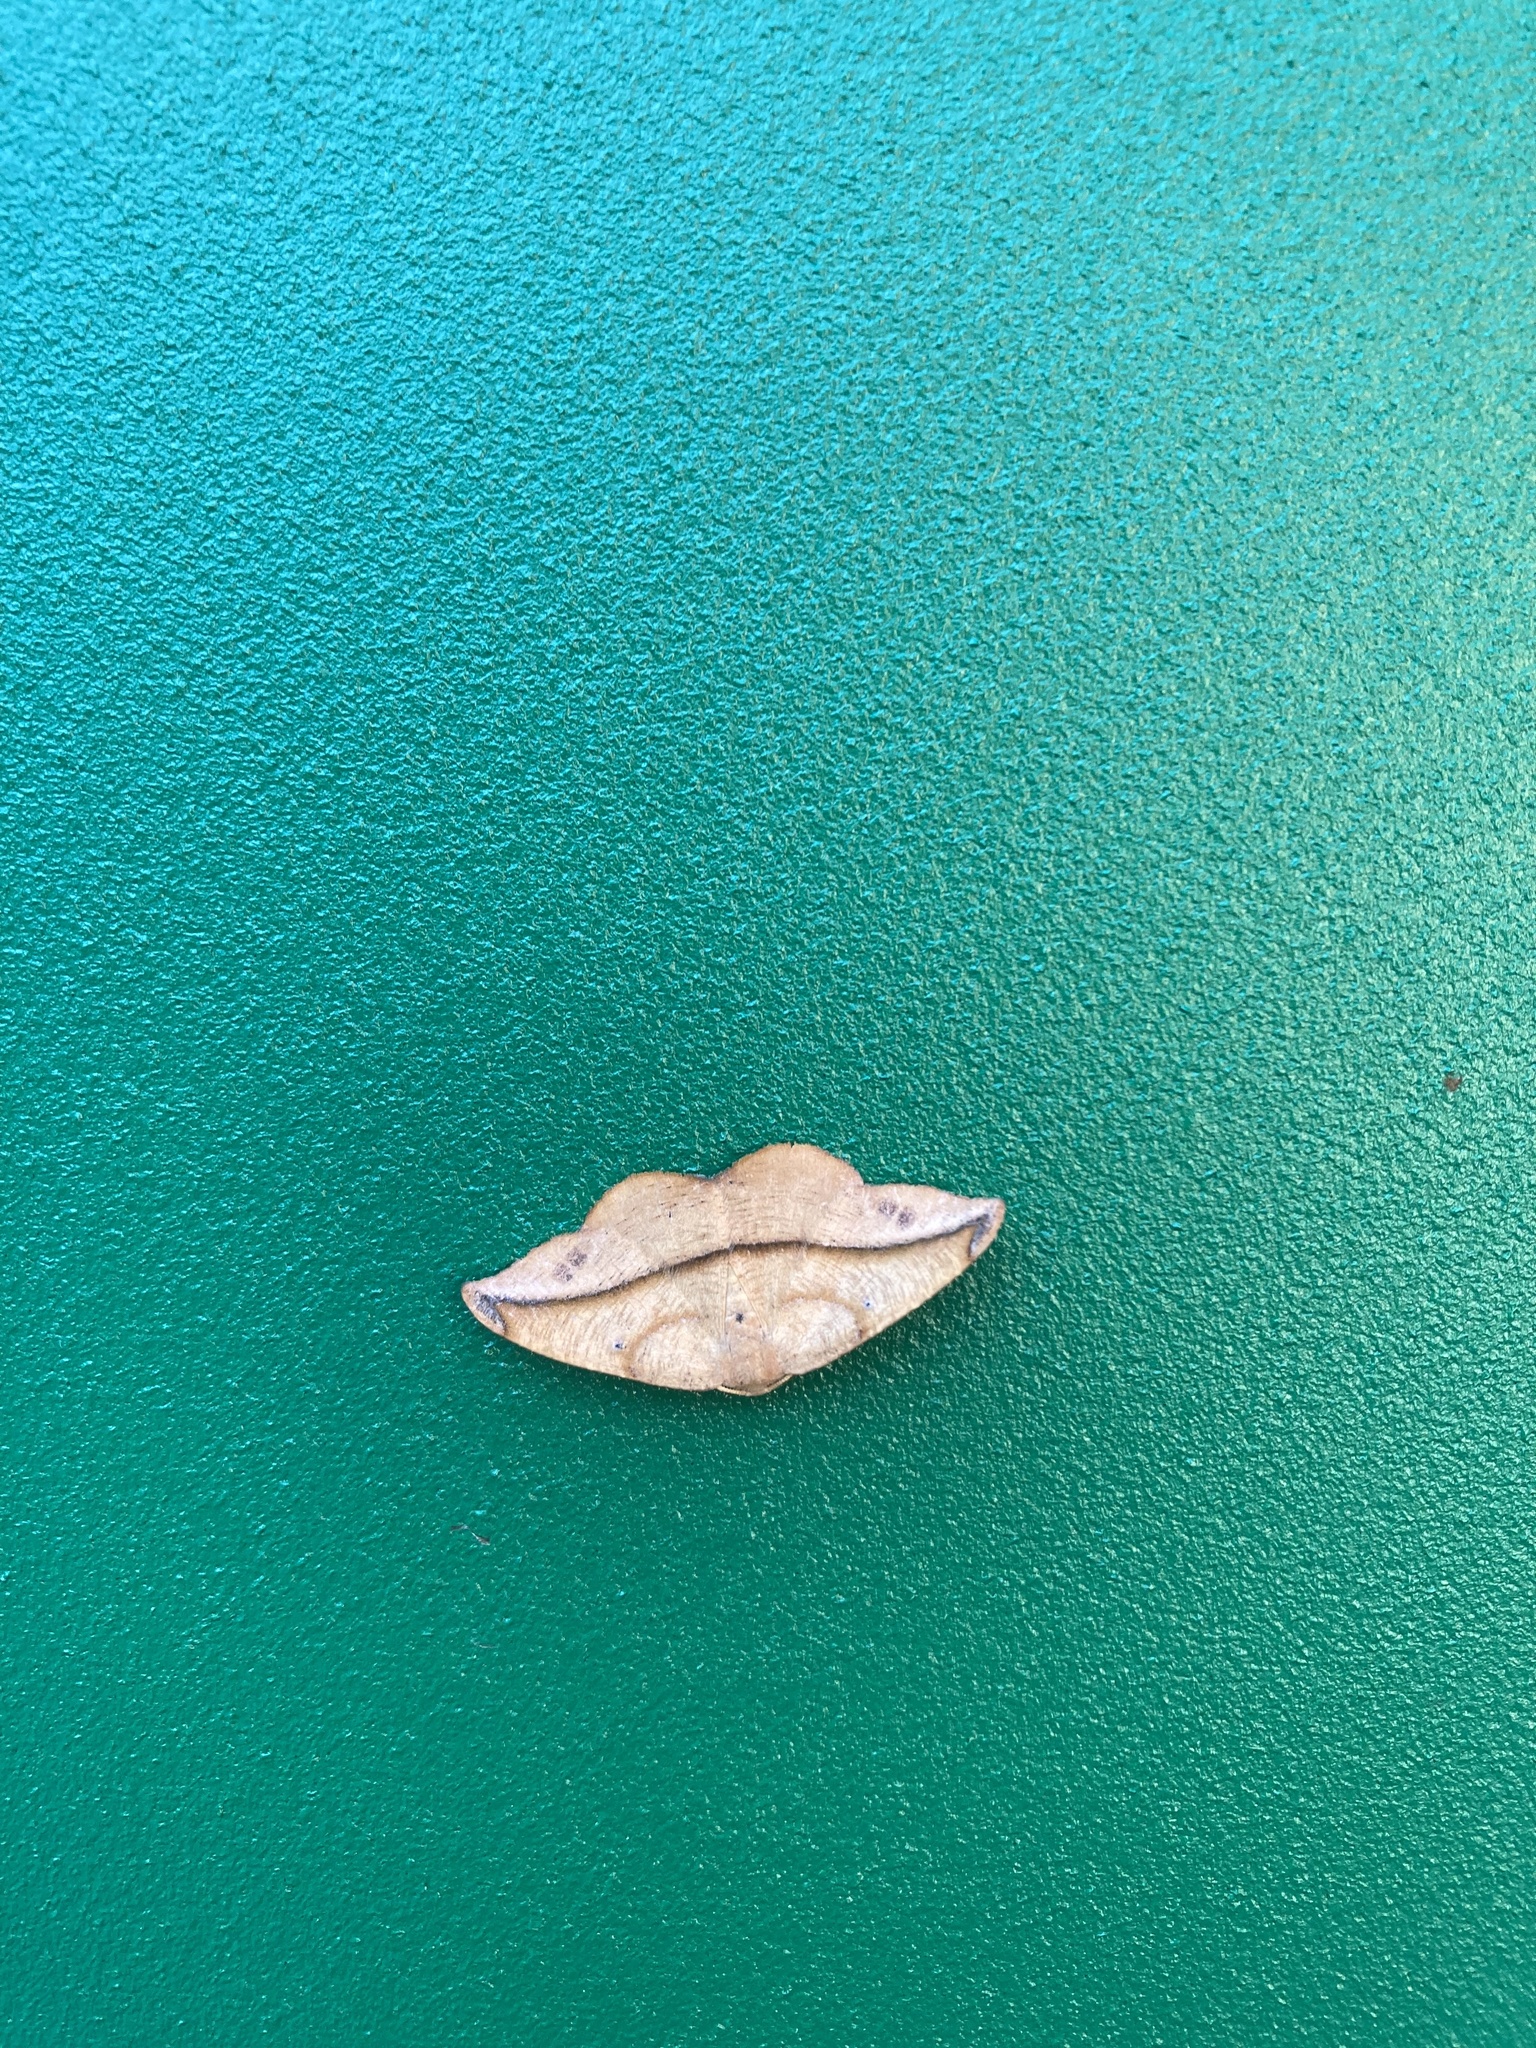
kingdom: Animalia
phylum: Arthropoda
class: Insecta
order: Lepidoptera
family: Geometridae
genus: Patalene
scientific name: Patalene olyzonaria
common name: Juniper geometer moth
